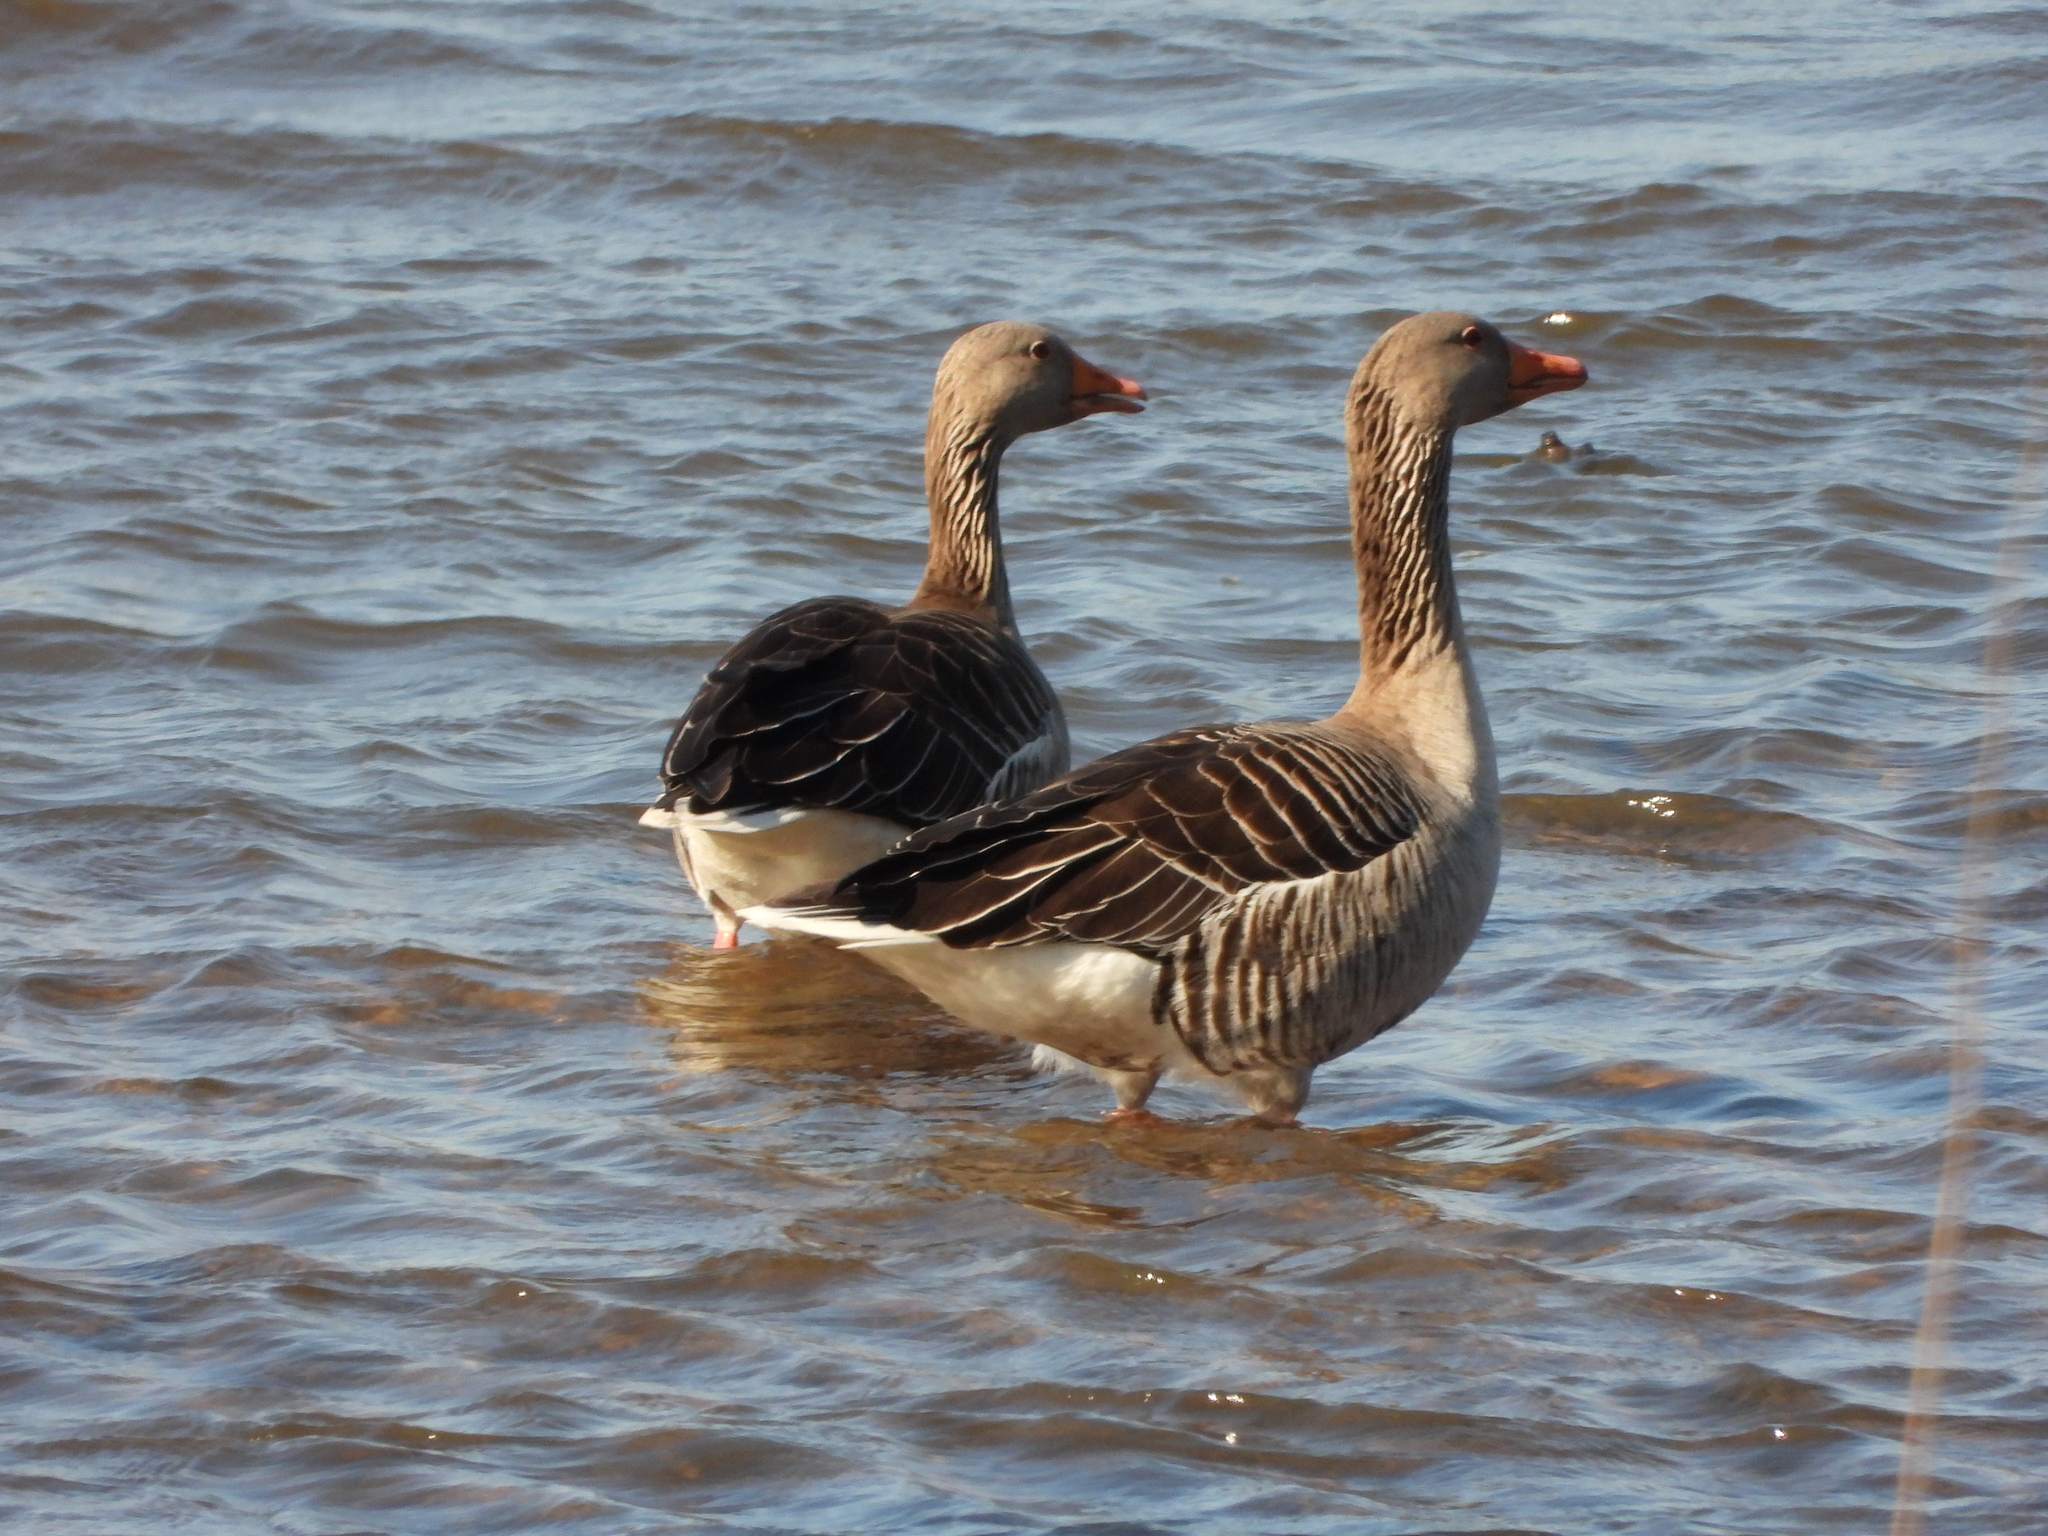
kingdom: Animalia
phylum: Chordata
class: Aves
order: Anseriformes
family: Anatidae
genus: Anser
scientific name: Anser anser
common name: Greylag goose
